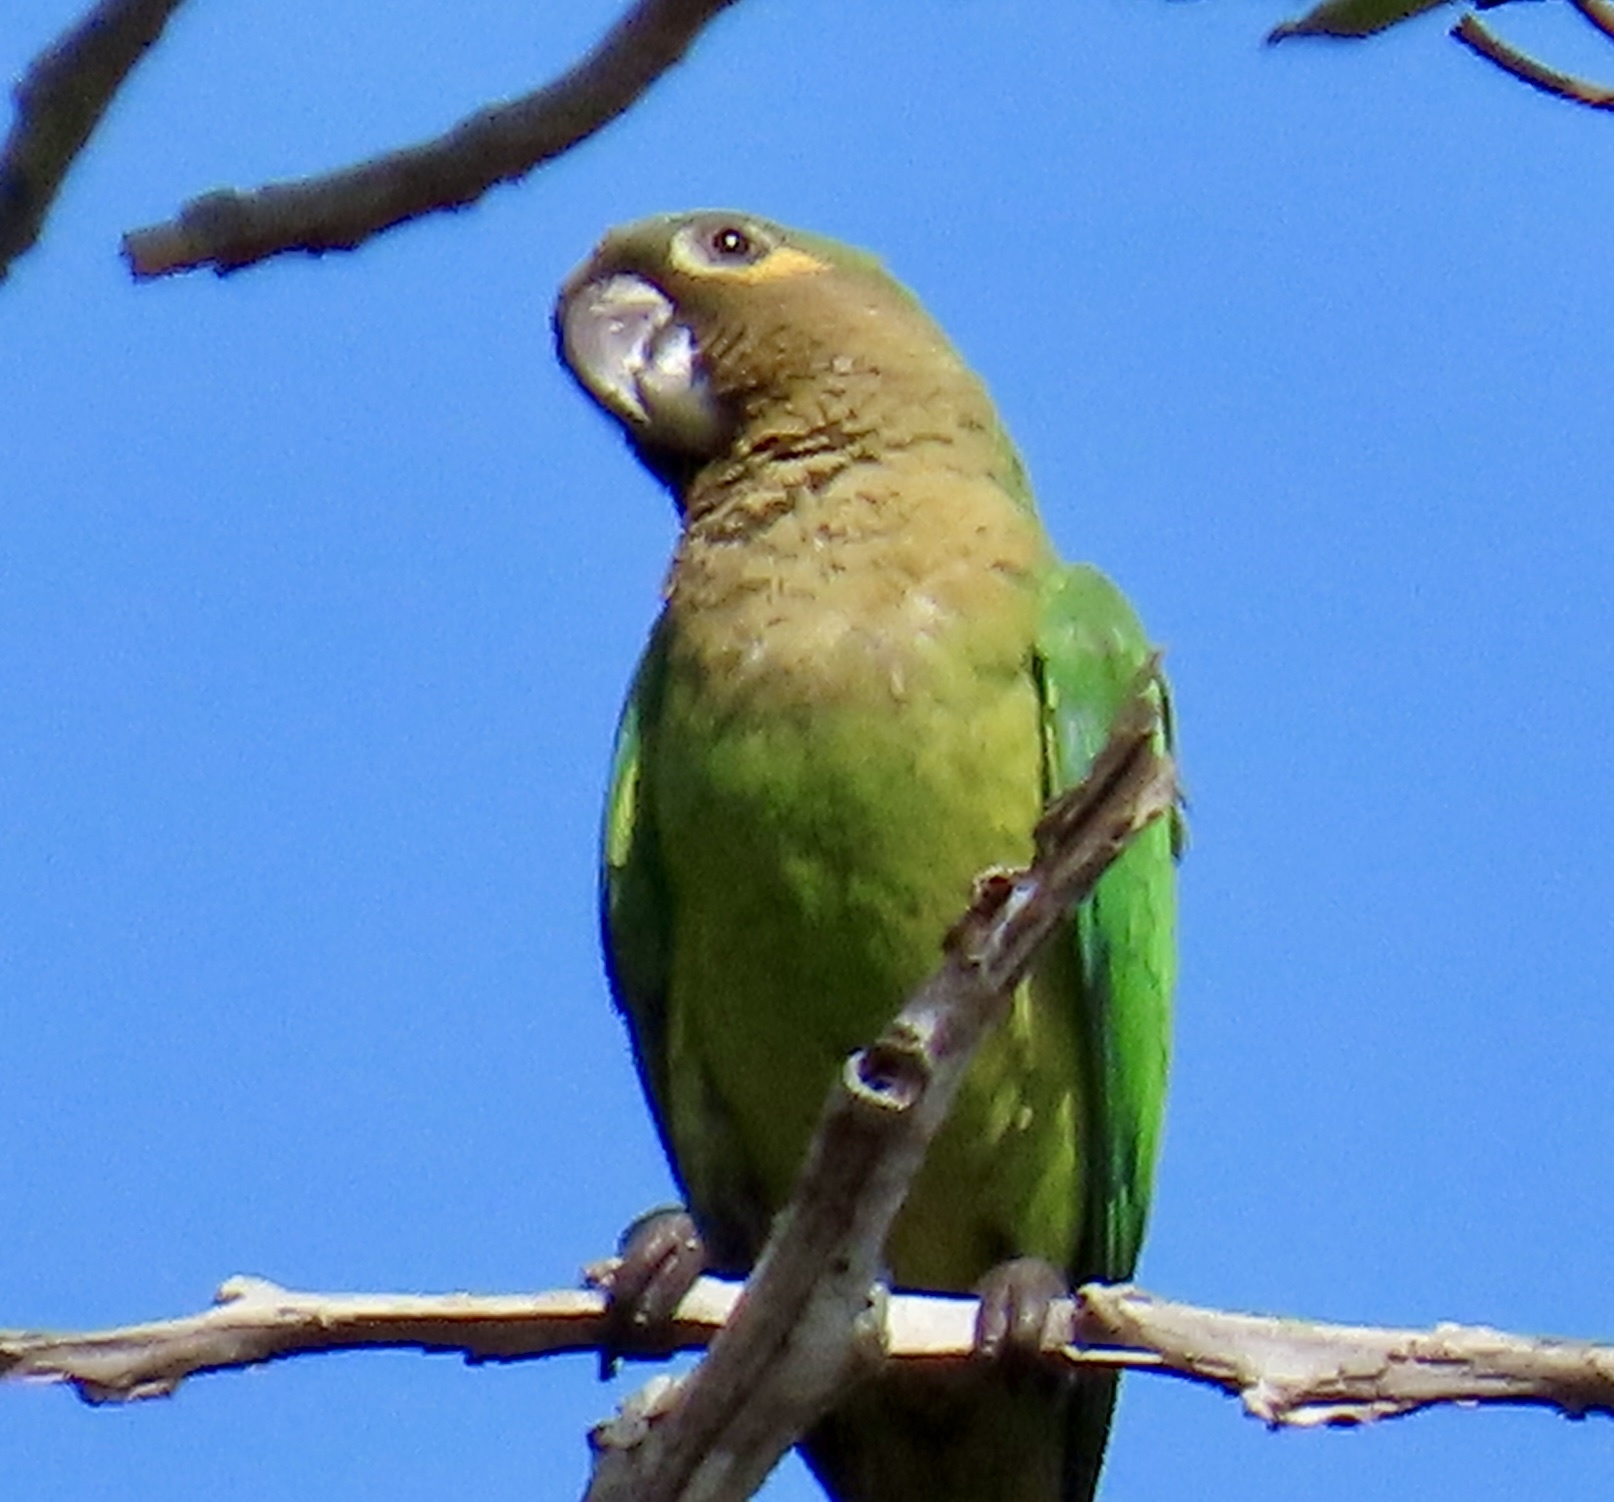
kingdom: Animalia
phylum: Chordata
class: Aves
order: Psittaciformes
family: Psittacidae
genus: Aratinga
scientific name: Aratinga pertinax
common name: Brown-throated parakeet
